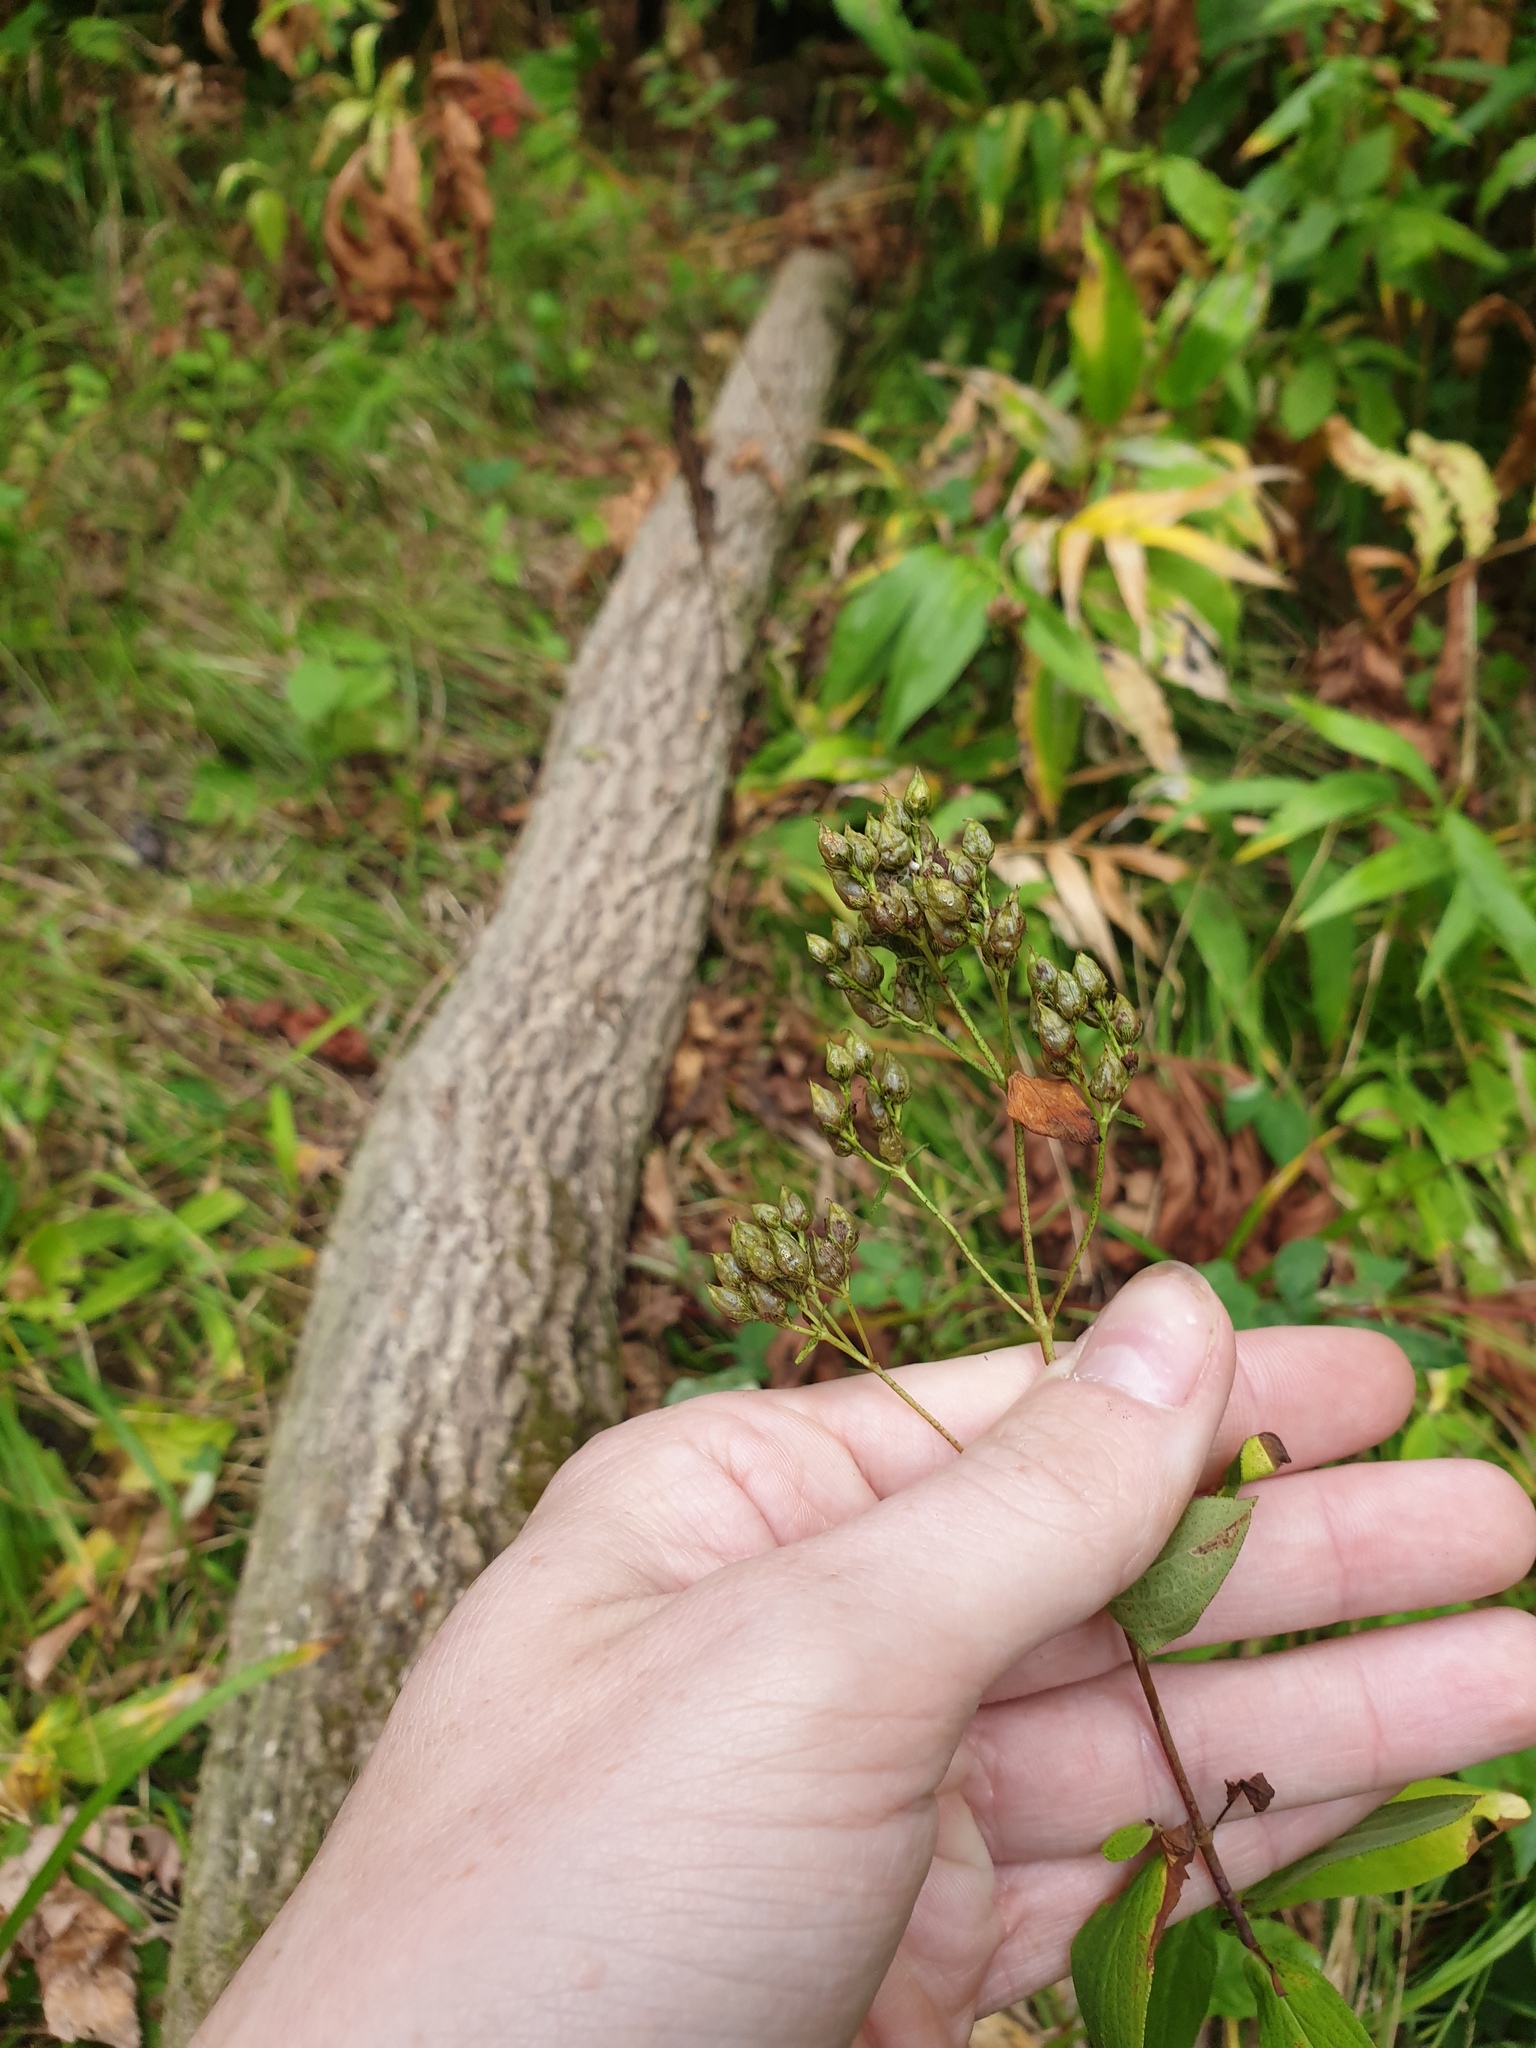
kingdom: Plantae
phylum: Tracheophyta
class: Magnoliopsida
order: Lamiales
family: Plantaginaceae
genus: Penstemon
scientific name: Penstemon digitalis
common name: Foxglove beardtongue
